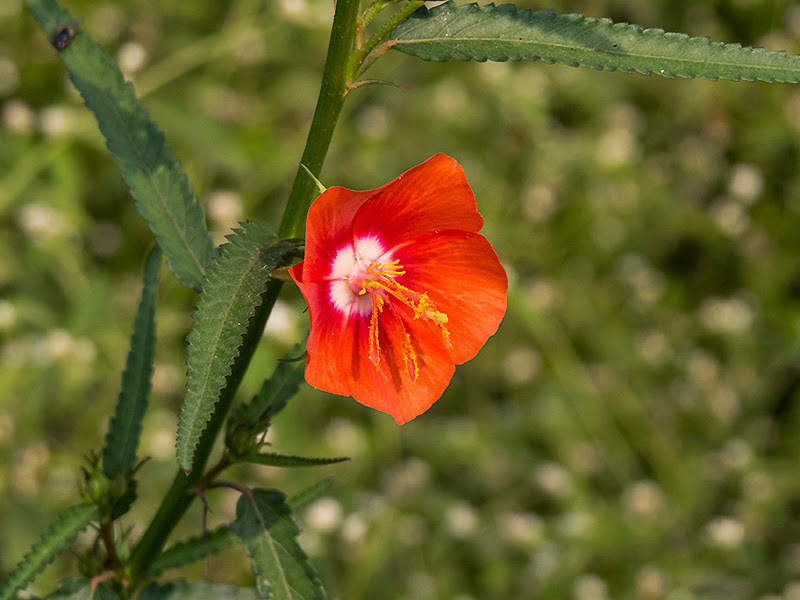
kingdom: Plantae
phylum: Tracheophyta
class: Magnoliopsida
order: Malvales
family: Malvaceae
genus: Pentapetes
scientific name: Pentapetes phoenicea
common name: Copper-cups
